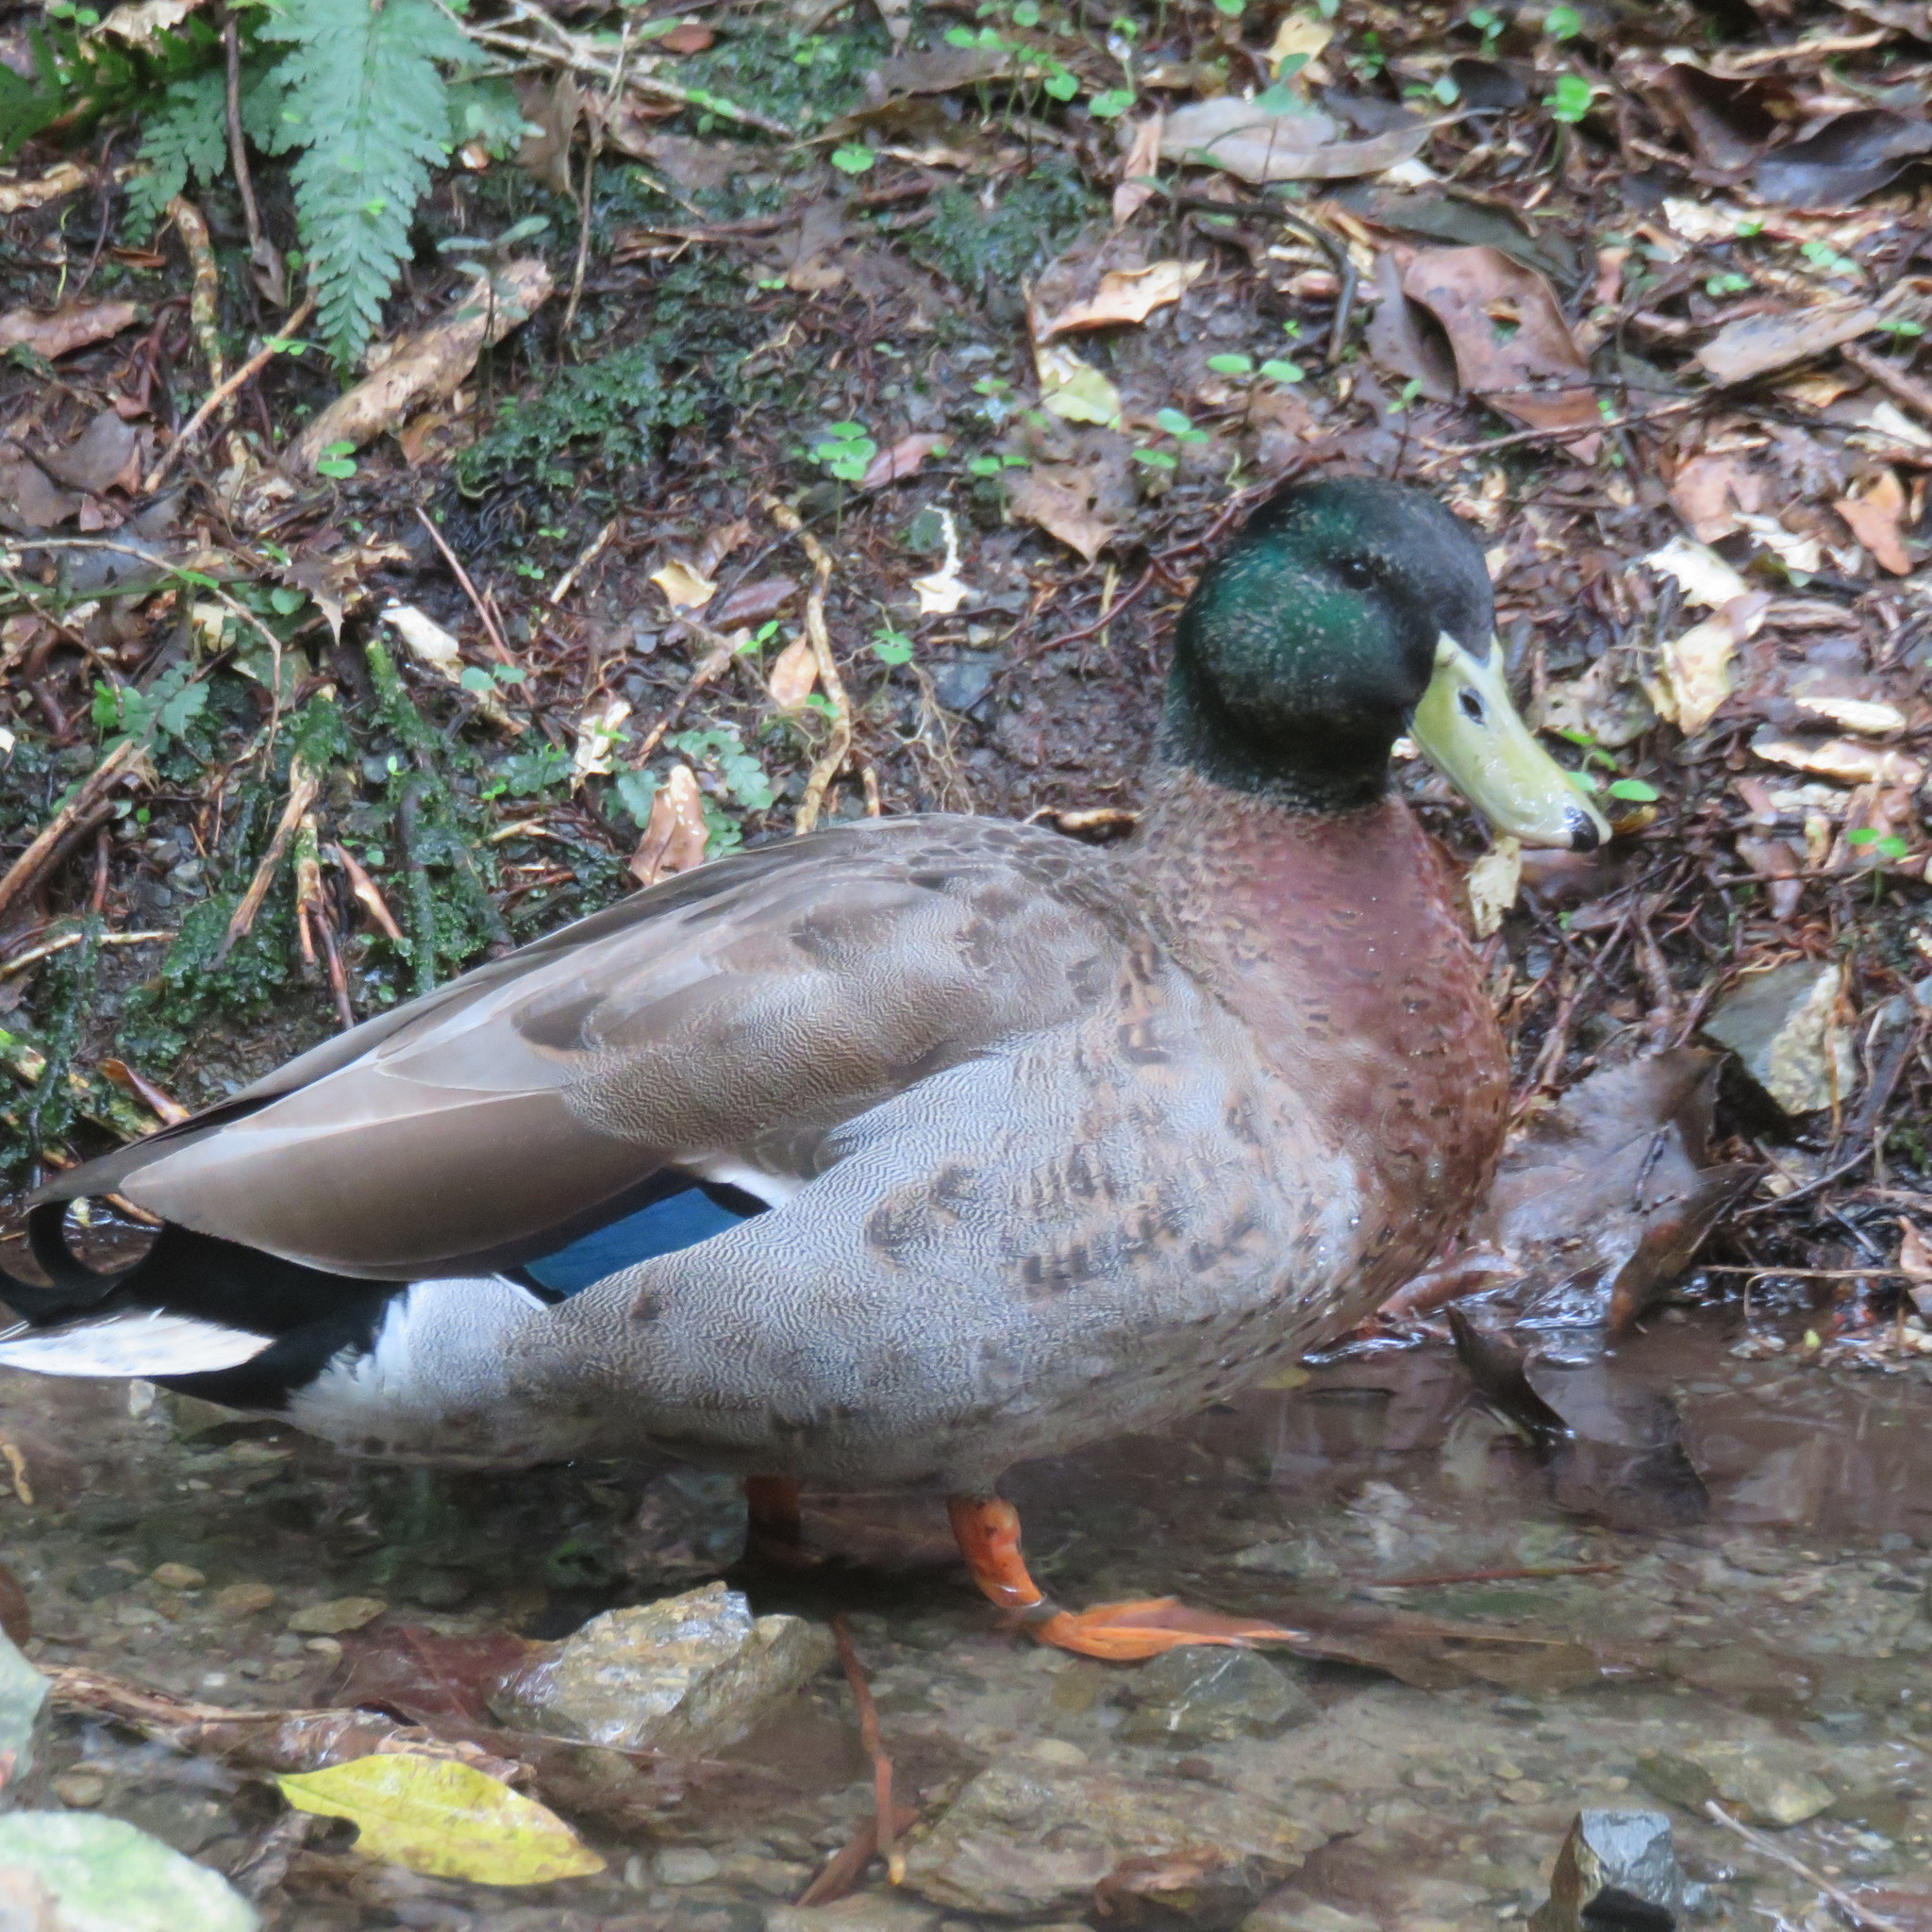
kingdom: Animalia
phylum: Chordata
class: Aves
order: Anseriformes
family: Anatidae
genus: Anas
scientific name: Anas platyrhynchos
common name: Mallard
